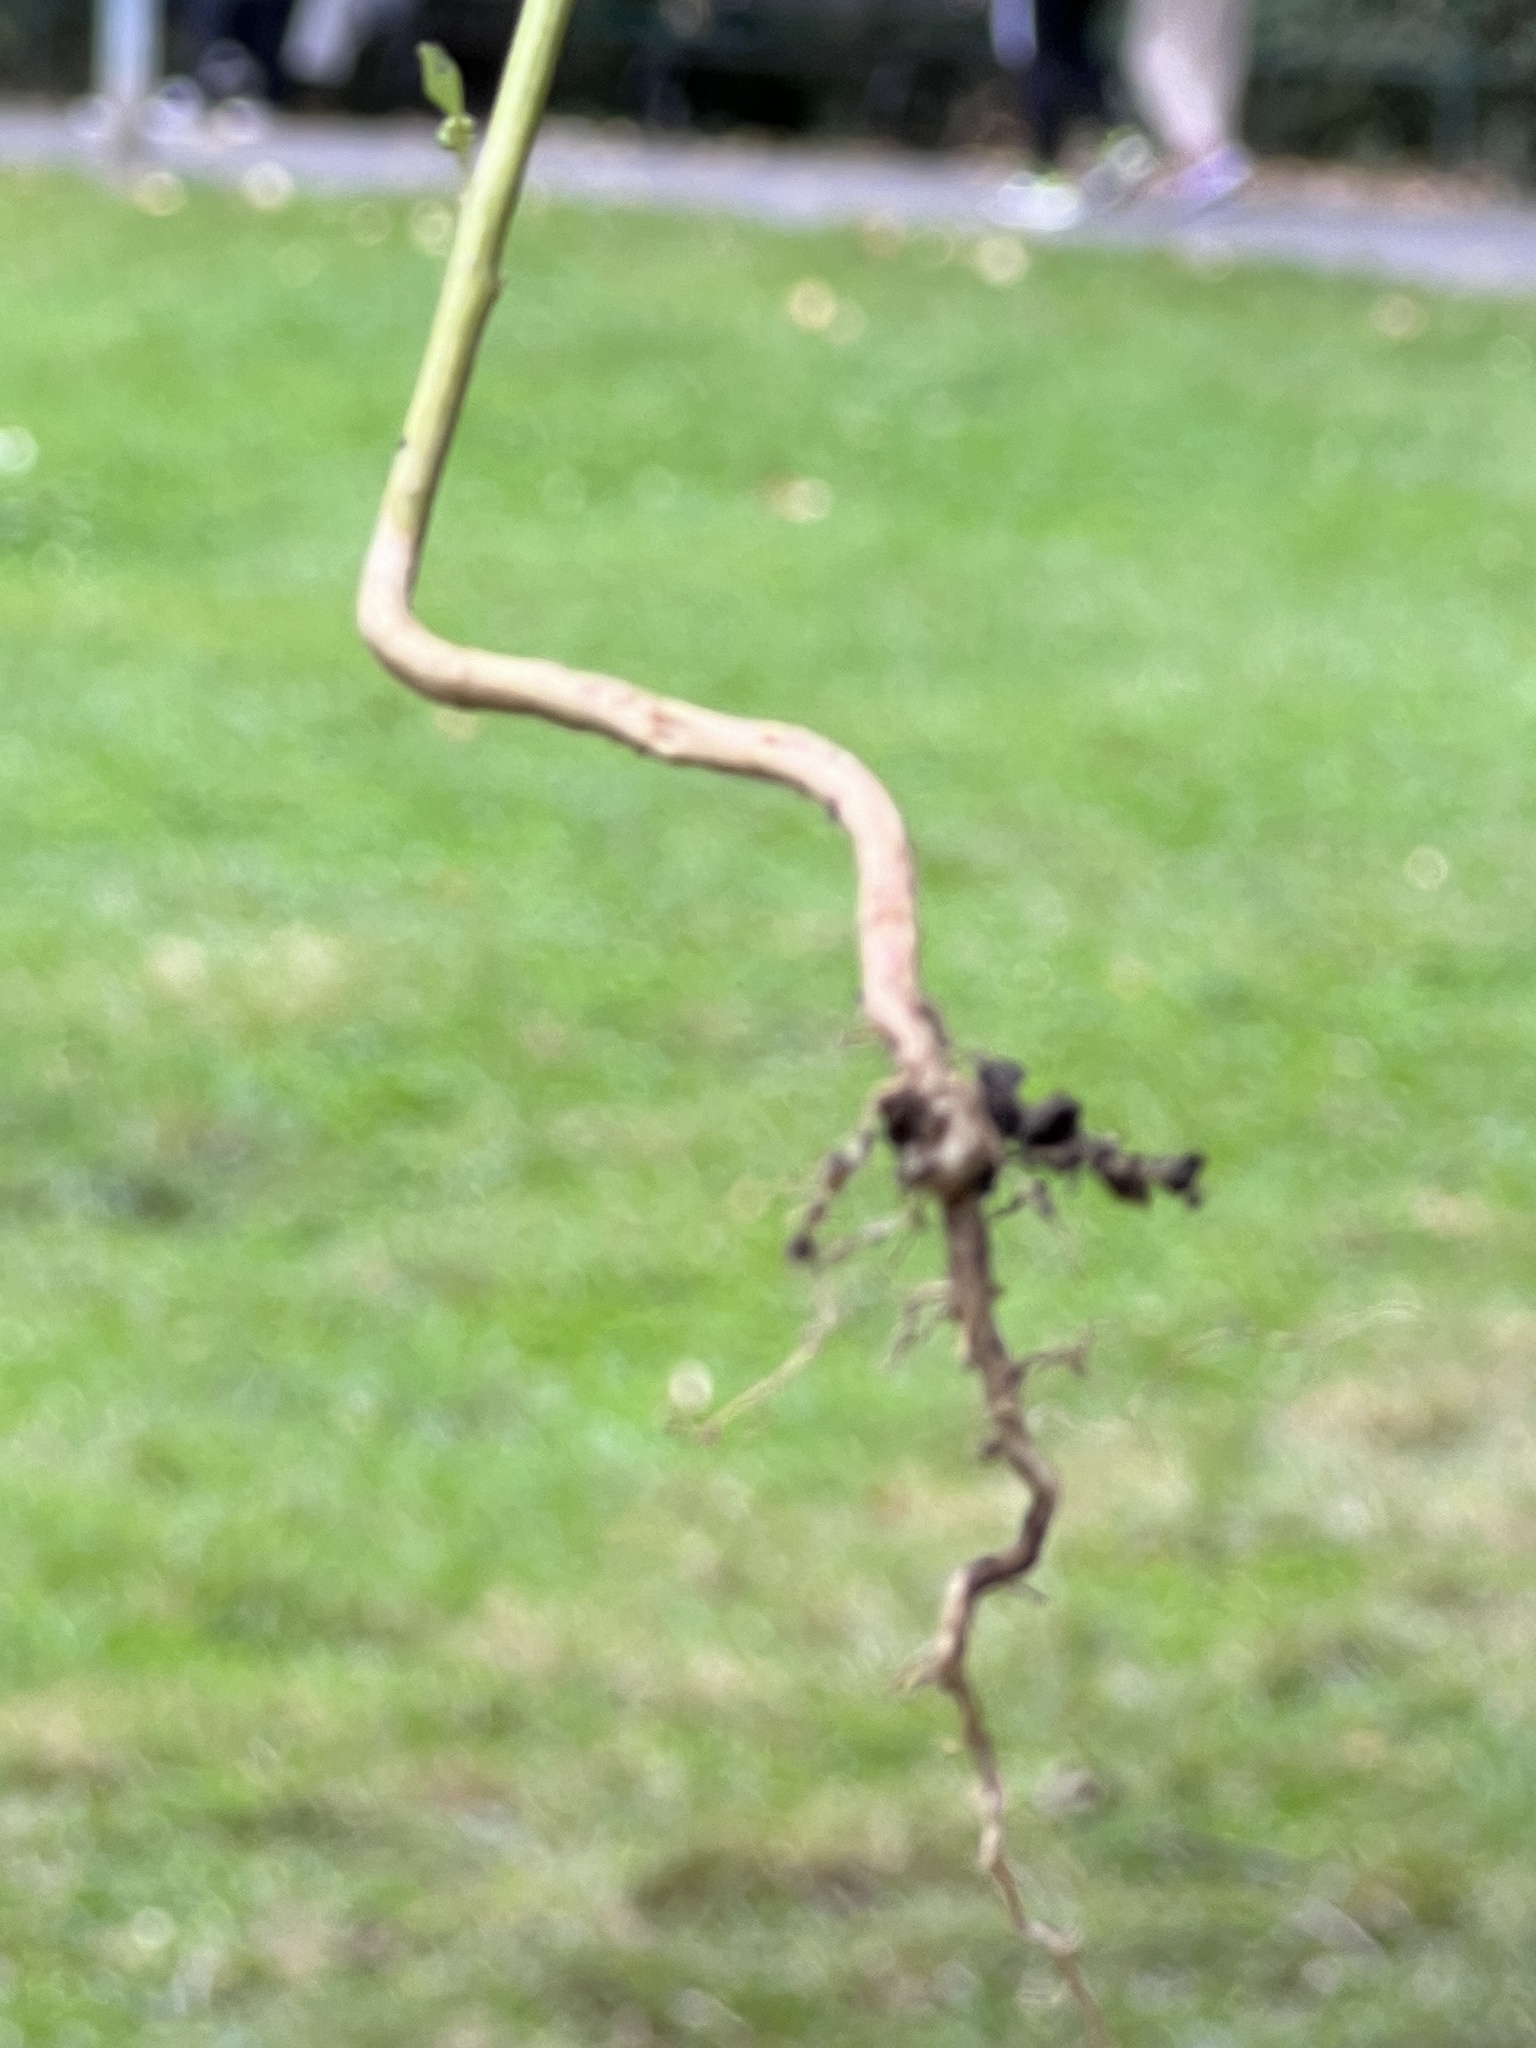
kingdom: Plantae
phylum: Tracheophyta
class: Magnoliopsida
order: Caryophyllales
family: Amaranthaceae
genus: Chenopodium
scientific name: Chenopodium album
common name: Fat-hen
